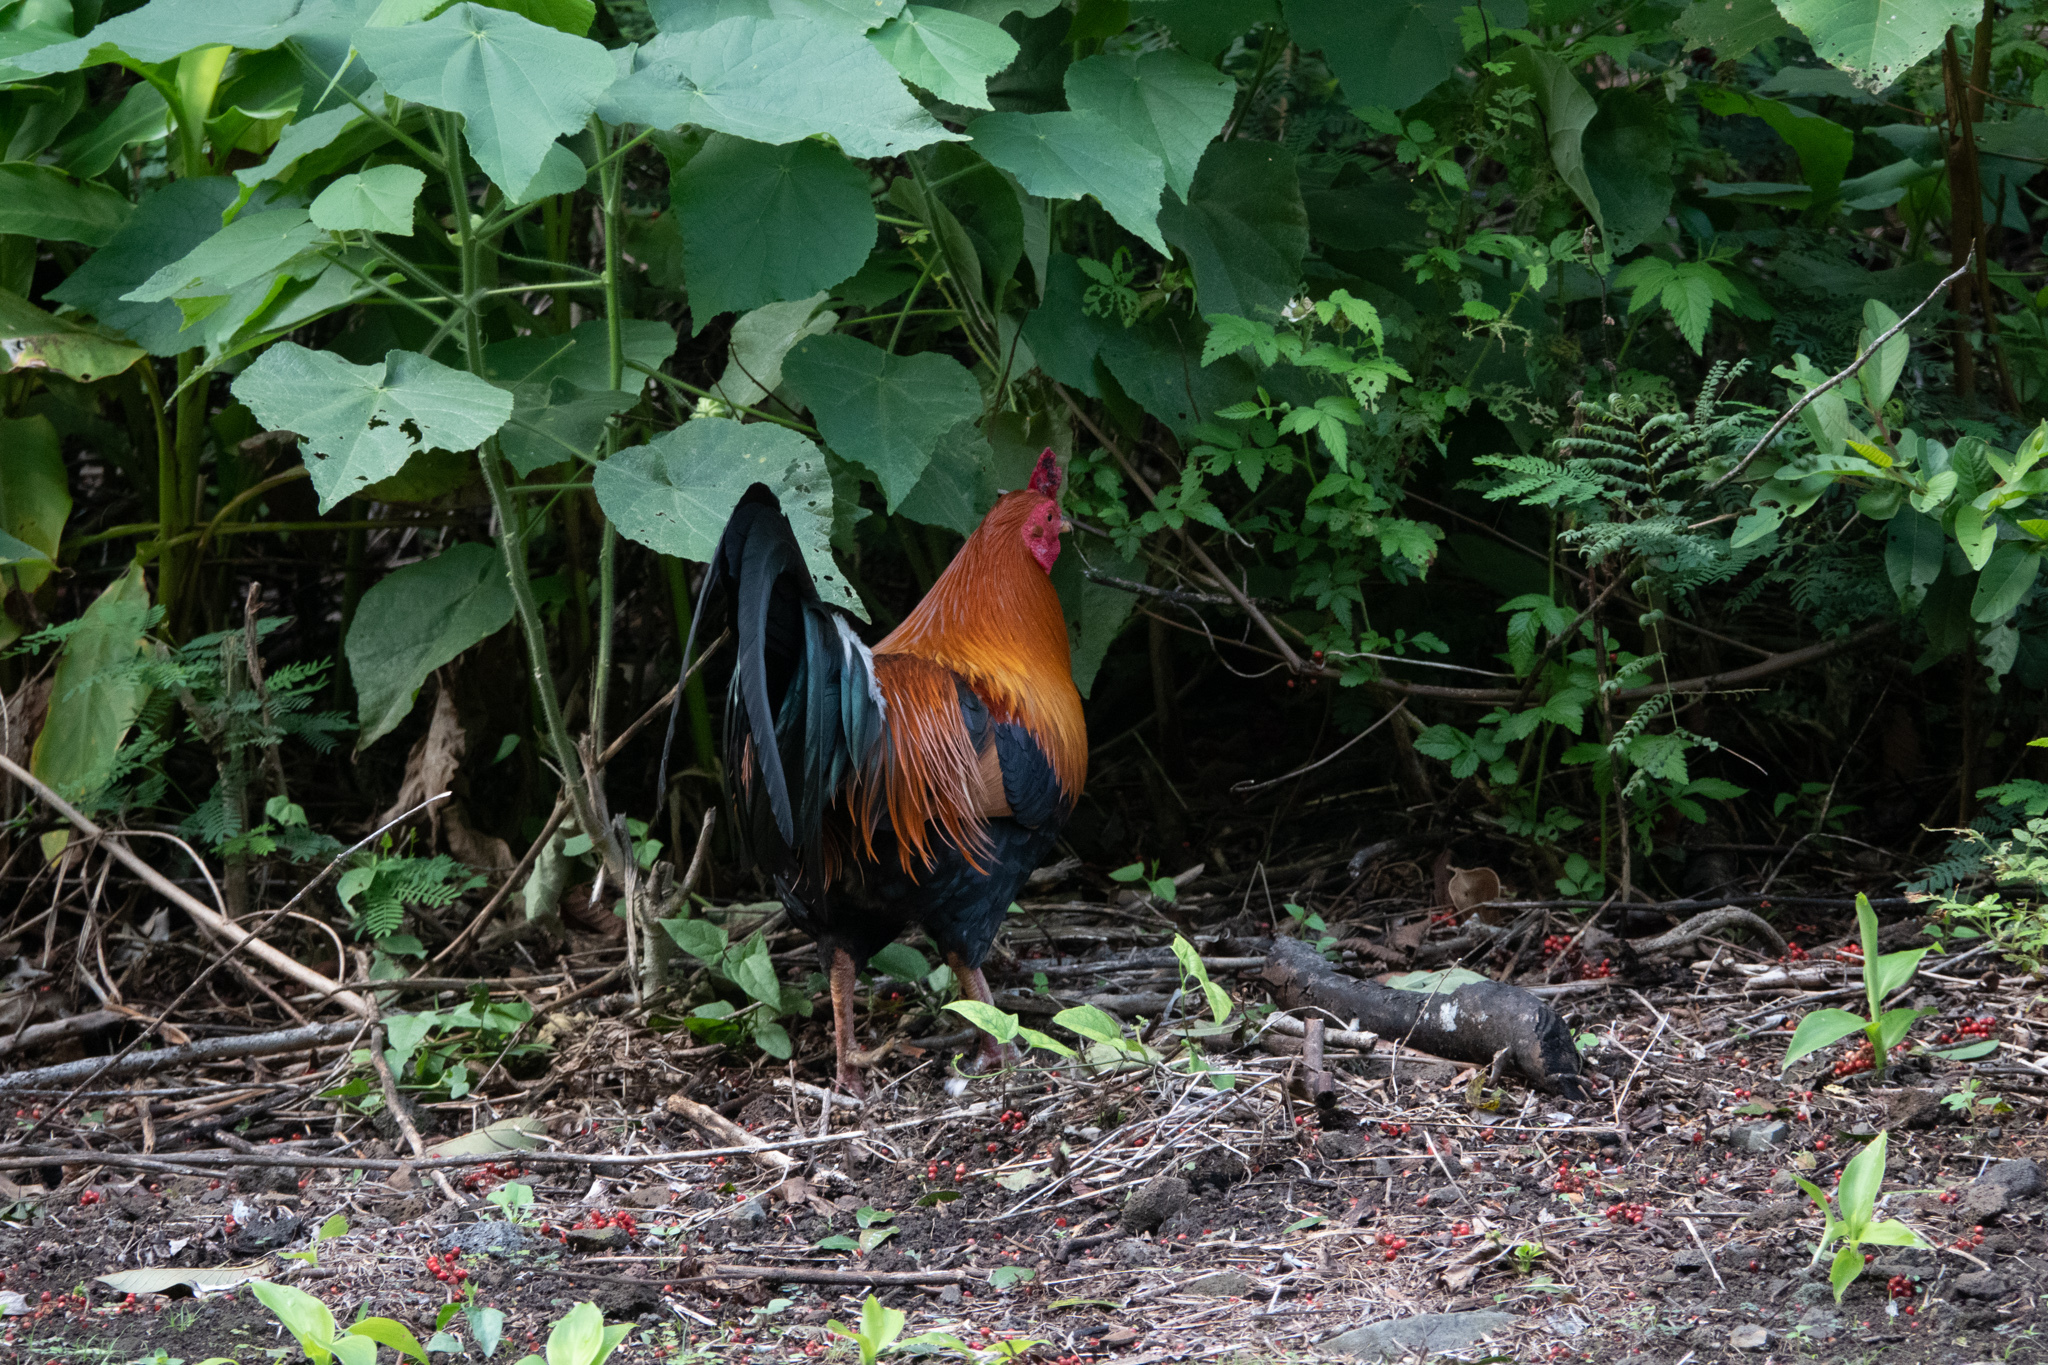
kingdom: Animalia
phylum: Chordata
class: Aves
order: Galliformes
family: Phasianidae
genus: Gallus
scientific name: Gallus gallus
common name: Red junglefowl
